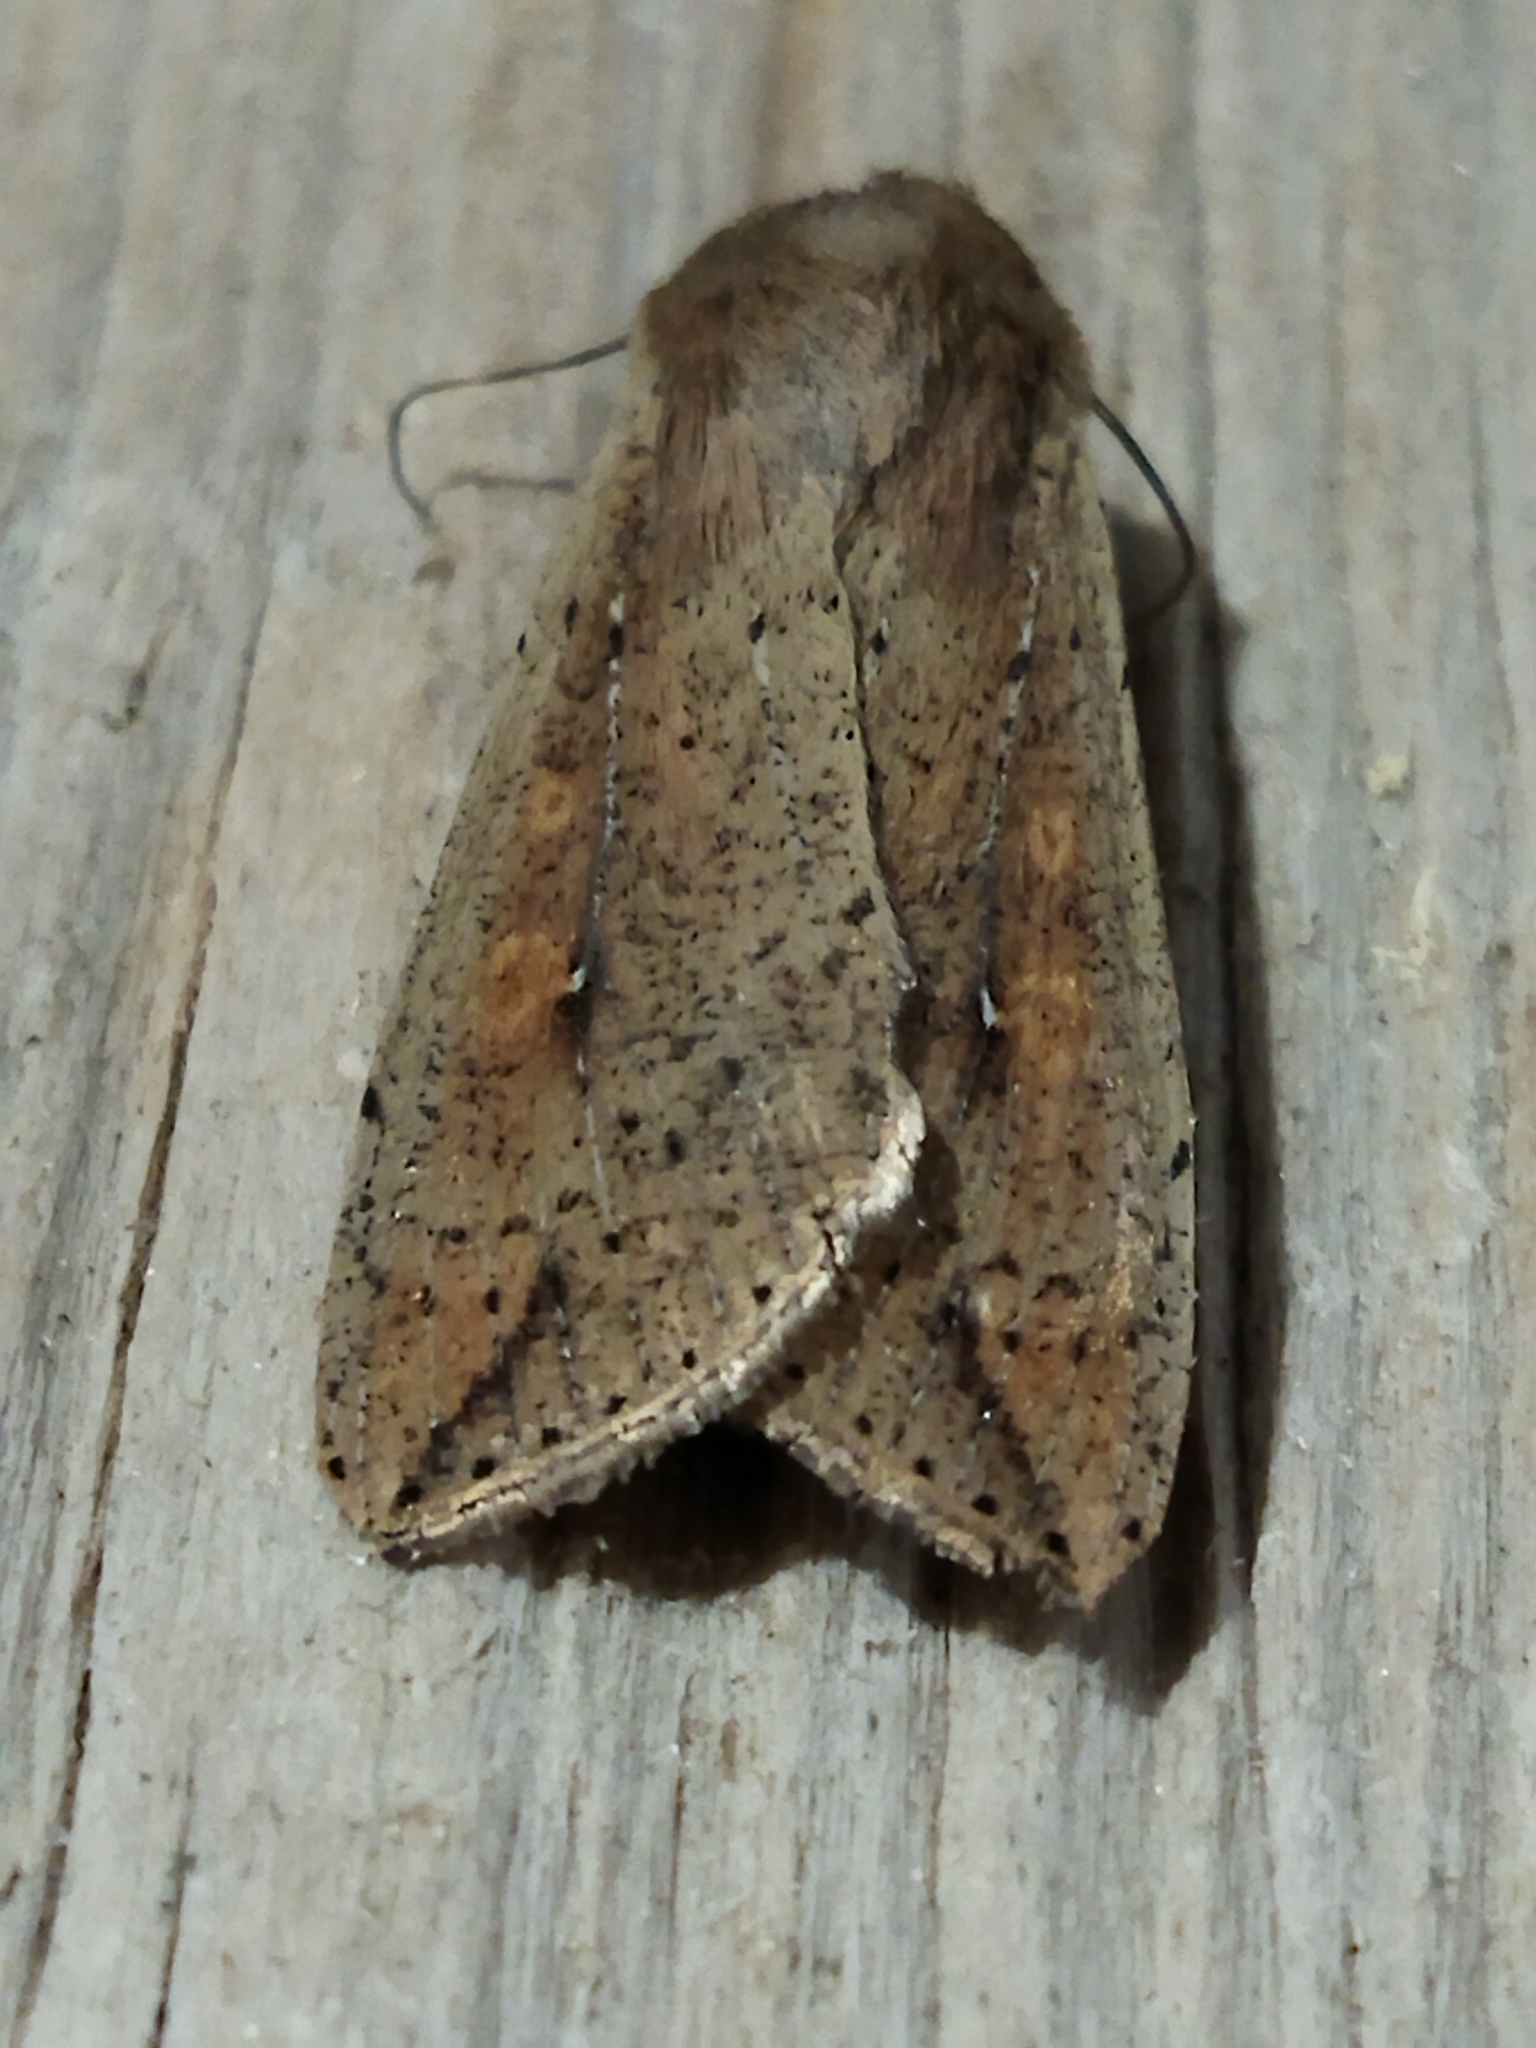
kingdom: Animalia
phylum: Arthropoda
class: Insecta
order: Lepidoptera
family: Noctuidae
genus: Mythimna
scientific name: Mythimna unipuncta
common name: White-speck
